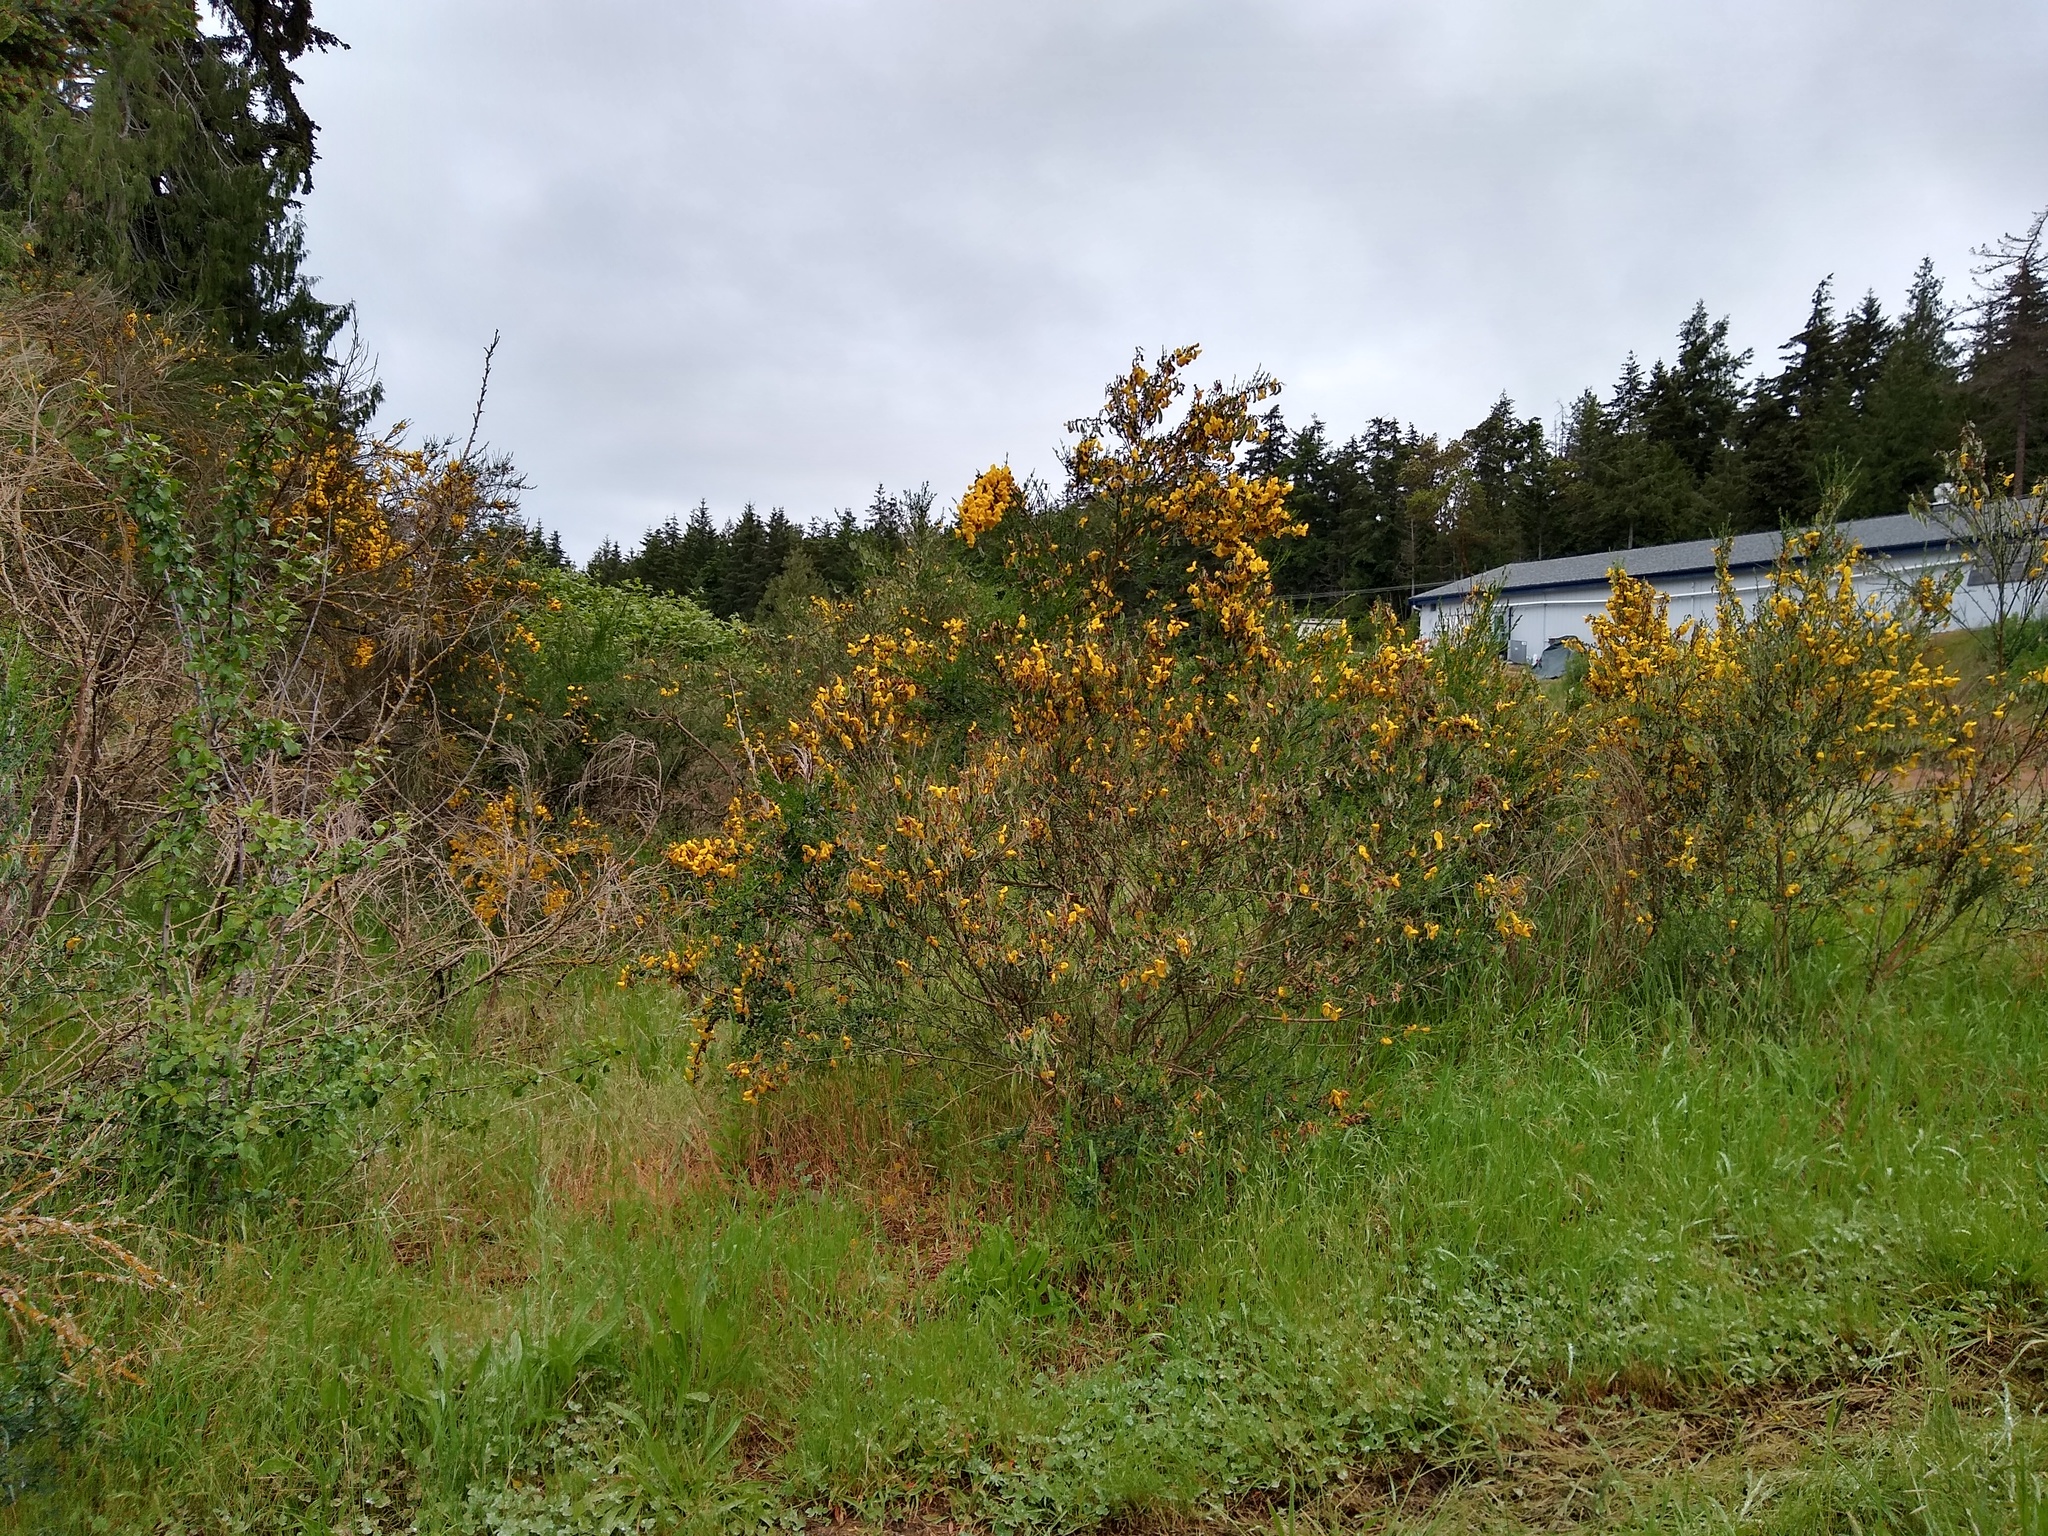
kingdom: Plantae
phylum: Tracheophyta
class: Magnoliopsida
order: Fabales
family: Fabaceae
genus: Cytisus
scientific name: Cytisus scoparius
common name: Scotch broom
